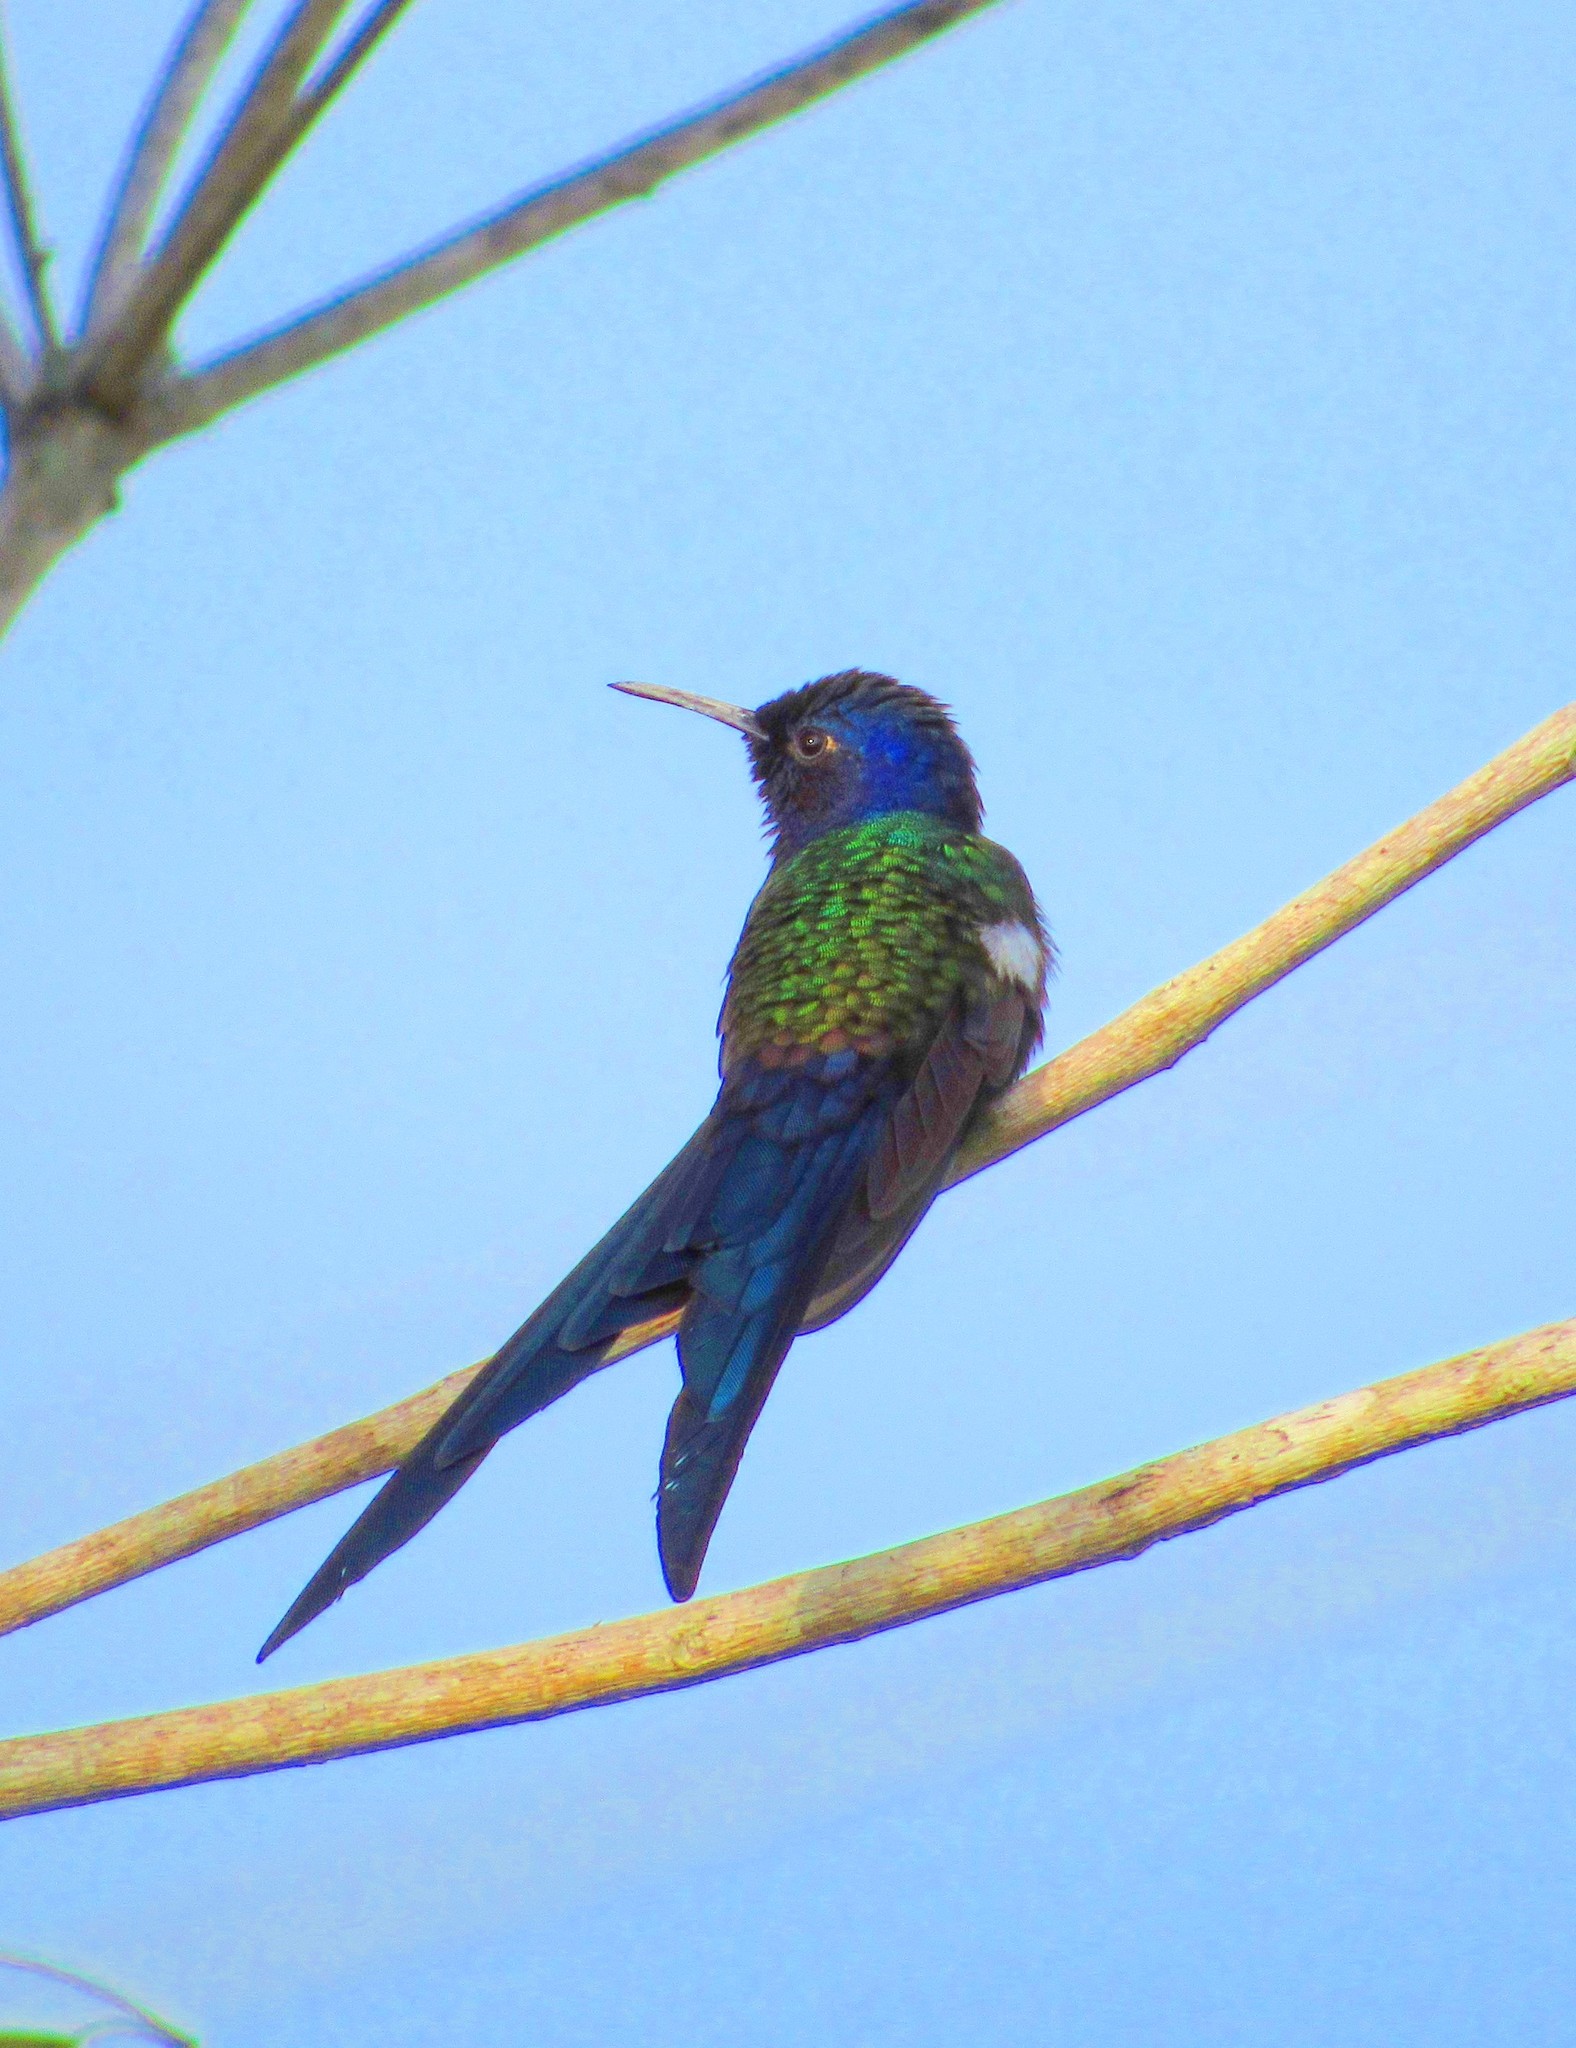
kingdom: Animalia
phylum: Chordata
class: Aves
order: Apodiformes
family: Trochilidae
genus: Eupetomena
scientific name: Eupetomena macroura
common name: Swallow-tailed hummingbird
